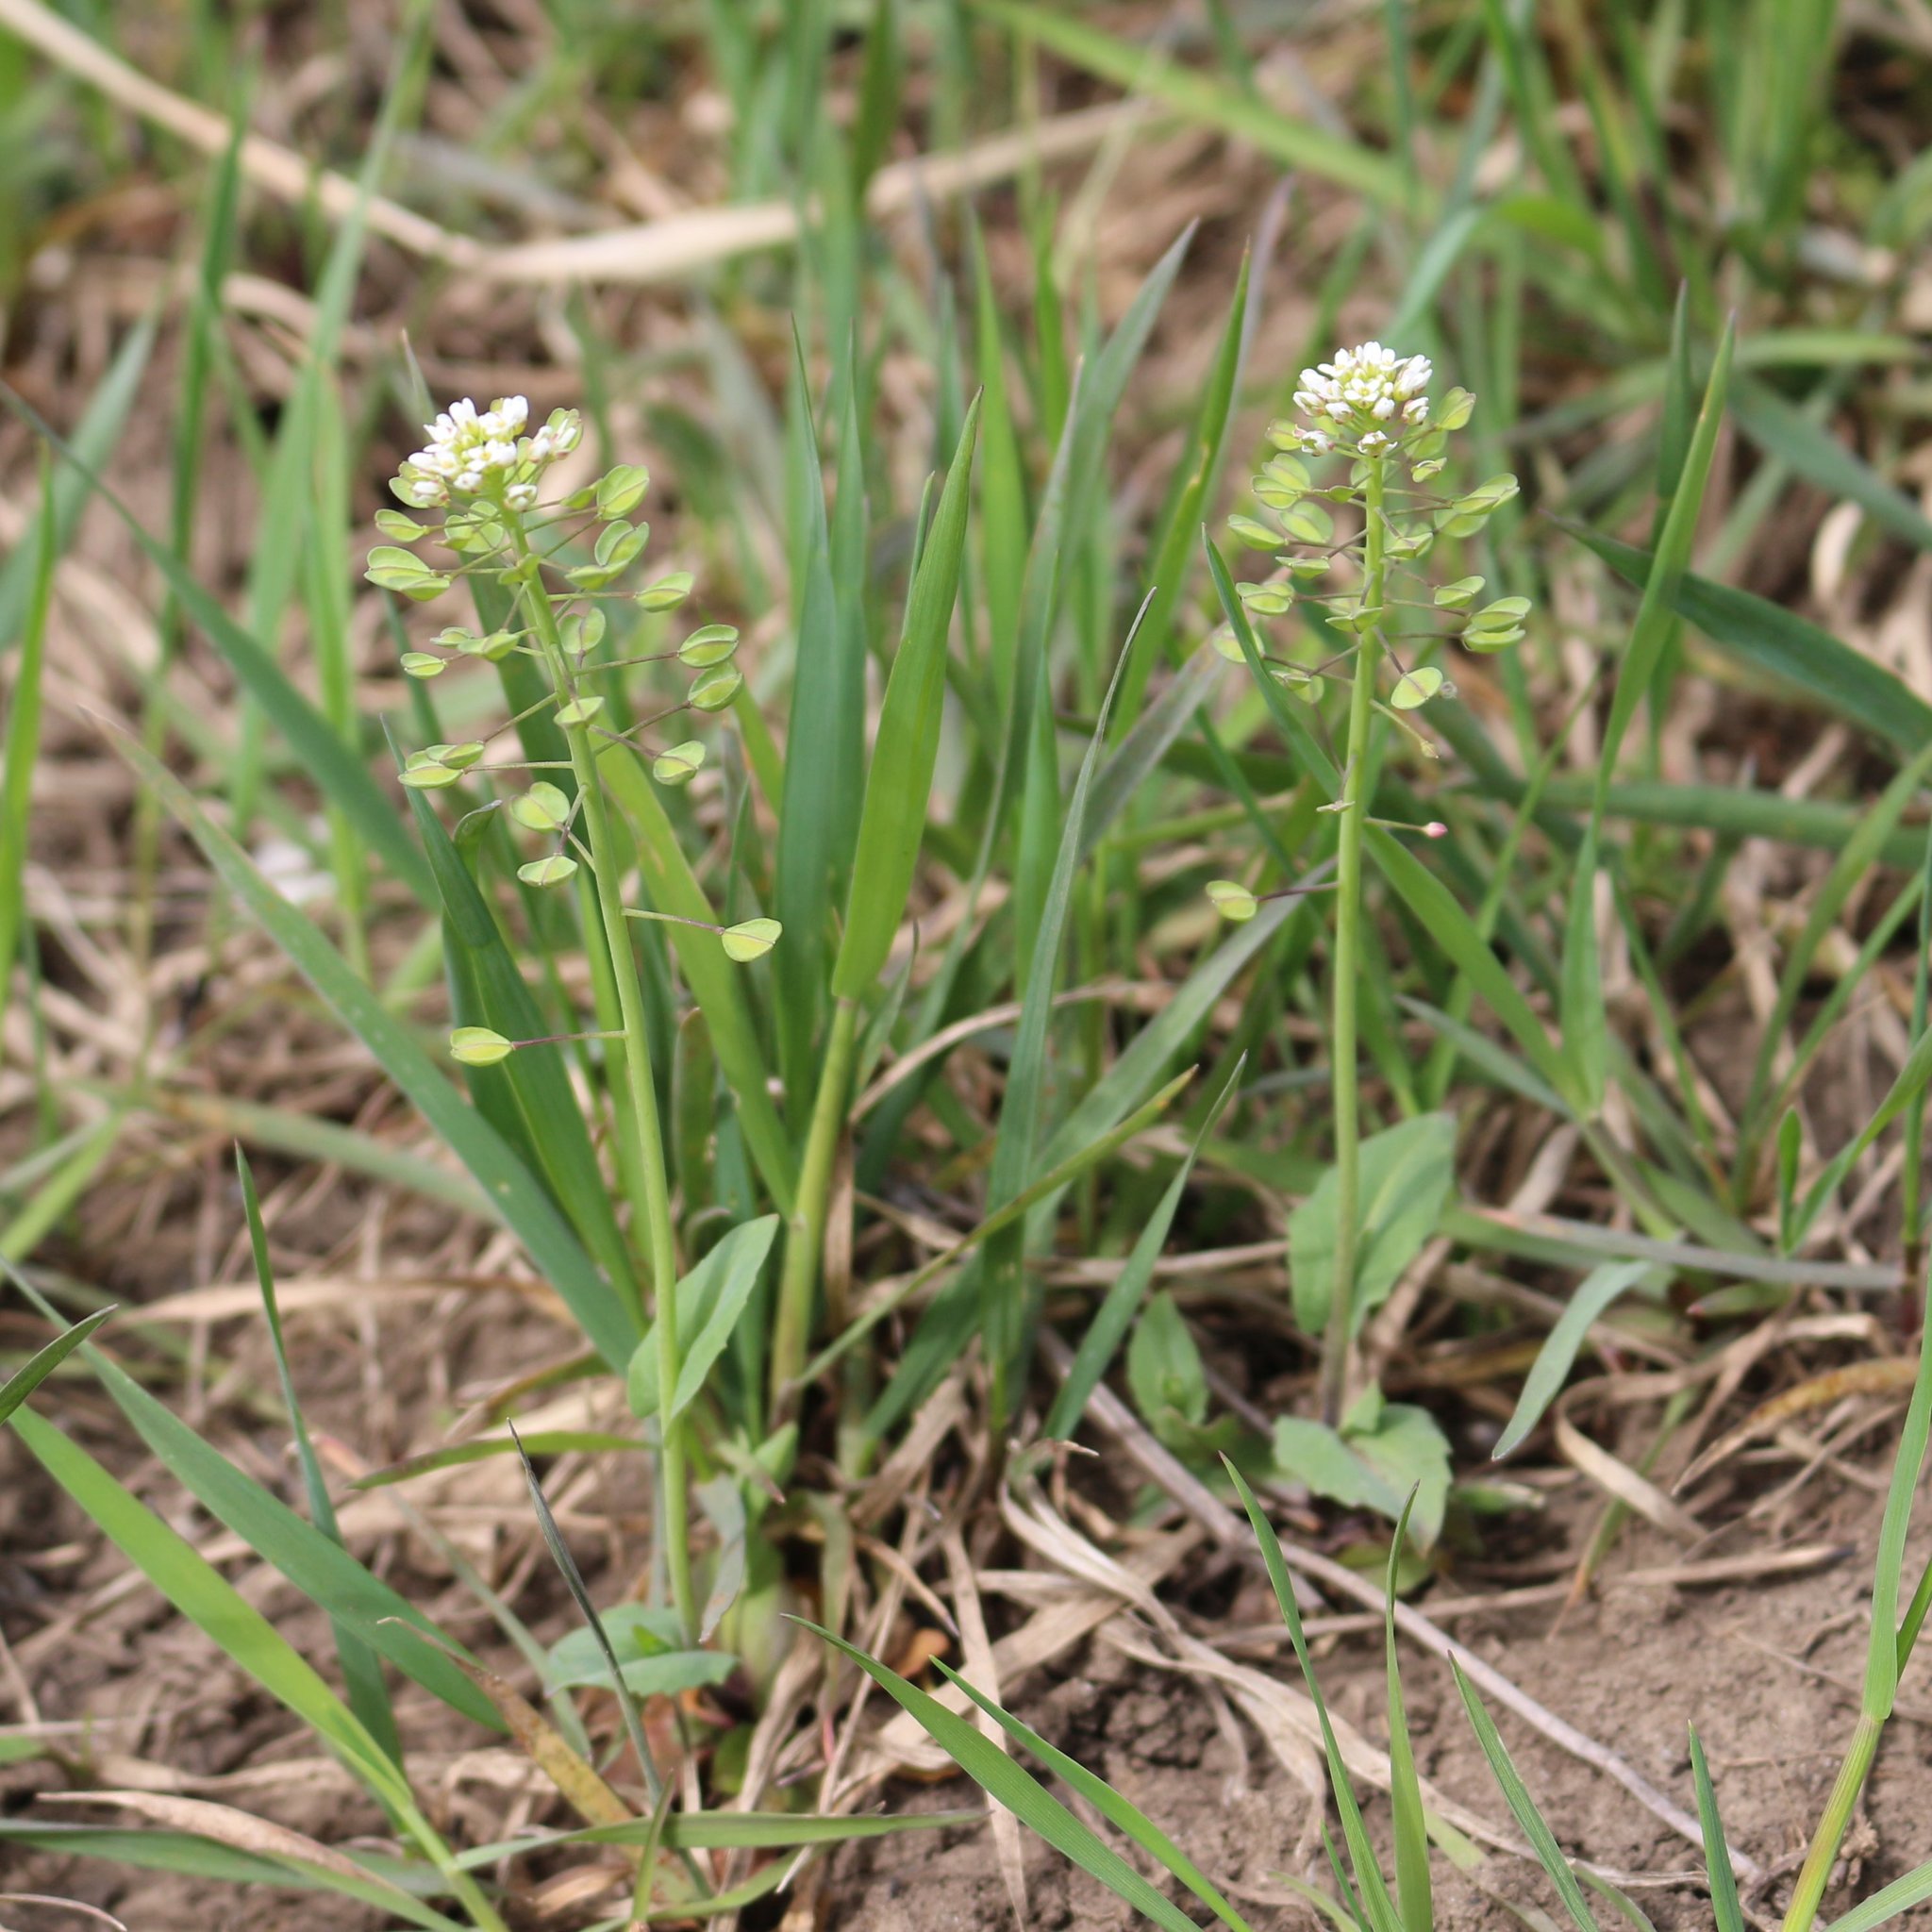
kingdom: Plantae
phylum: Tracheophyta
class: Magnoliopsida
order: Brassicales
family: Brassicaceae
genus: Noccaea
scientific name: Noccaea perfoliata
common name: Perfoliate pennycress
